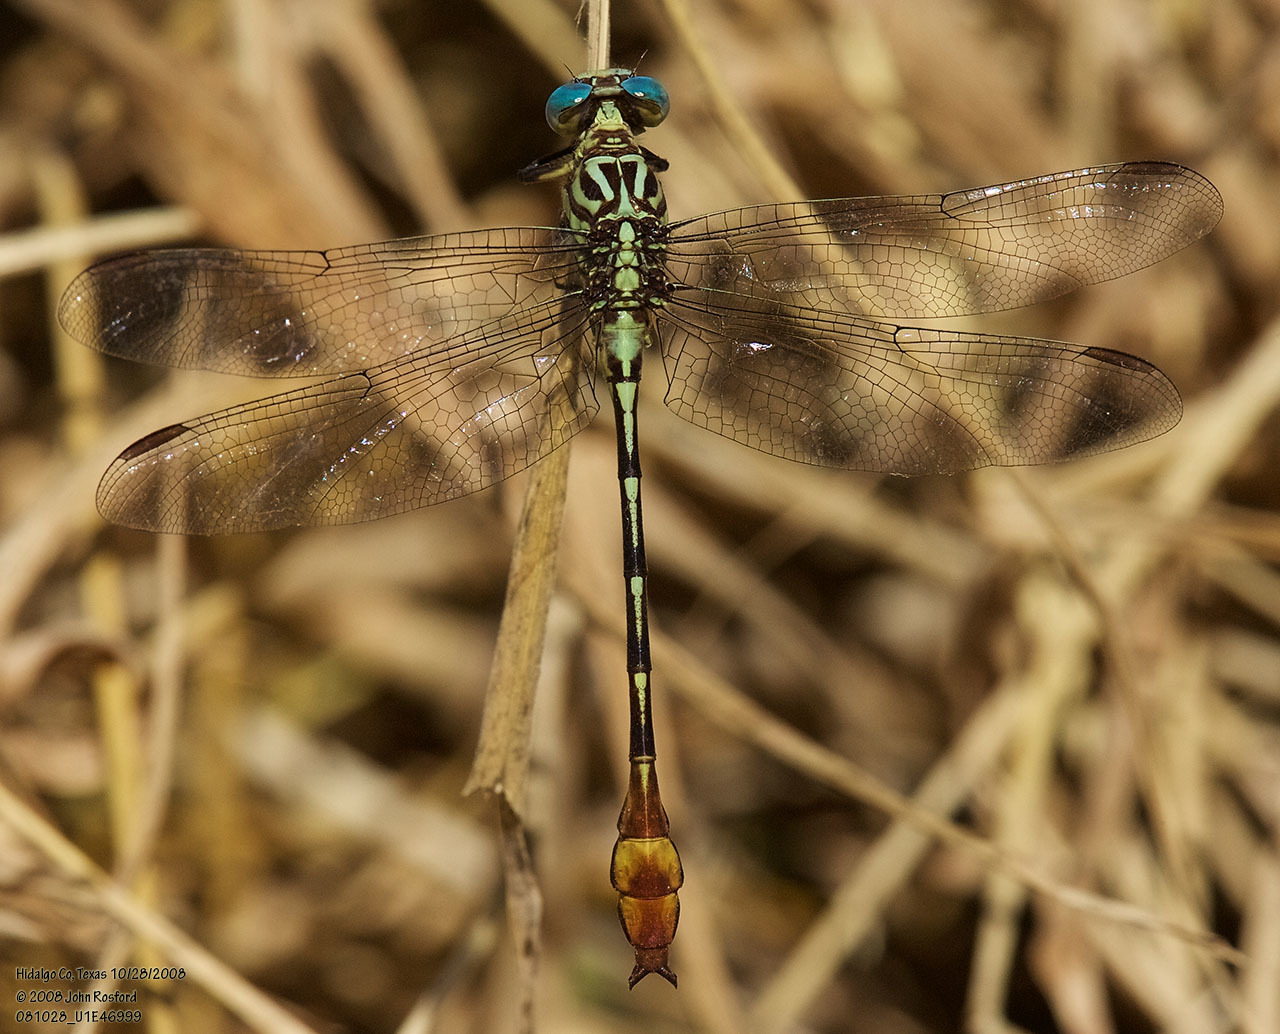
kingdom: Animalia
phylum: Arthropoda
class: Insecta
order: Odonata
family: Gomphidae
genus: Stylurus
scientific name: Stylurus plagiatus
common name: Russet-tipped clubtail
